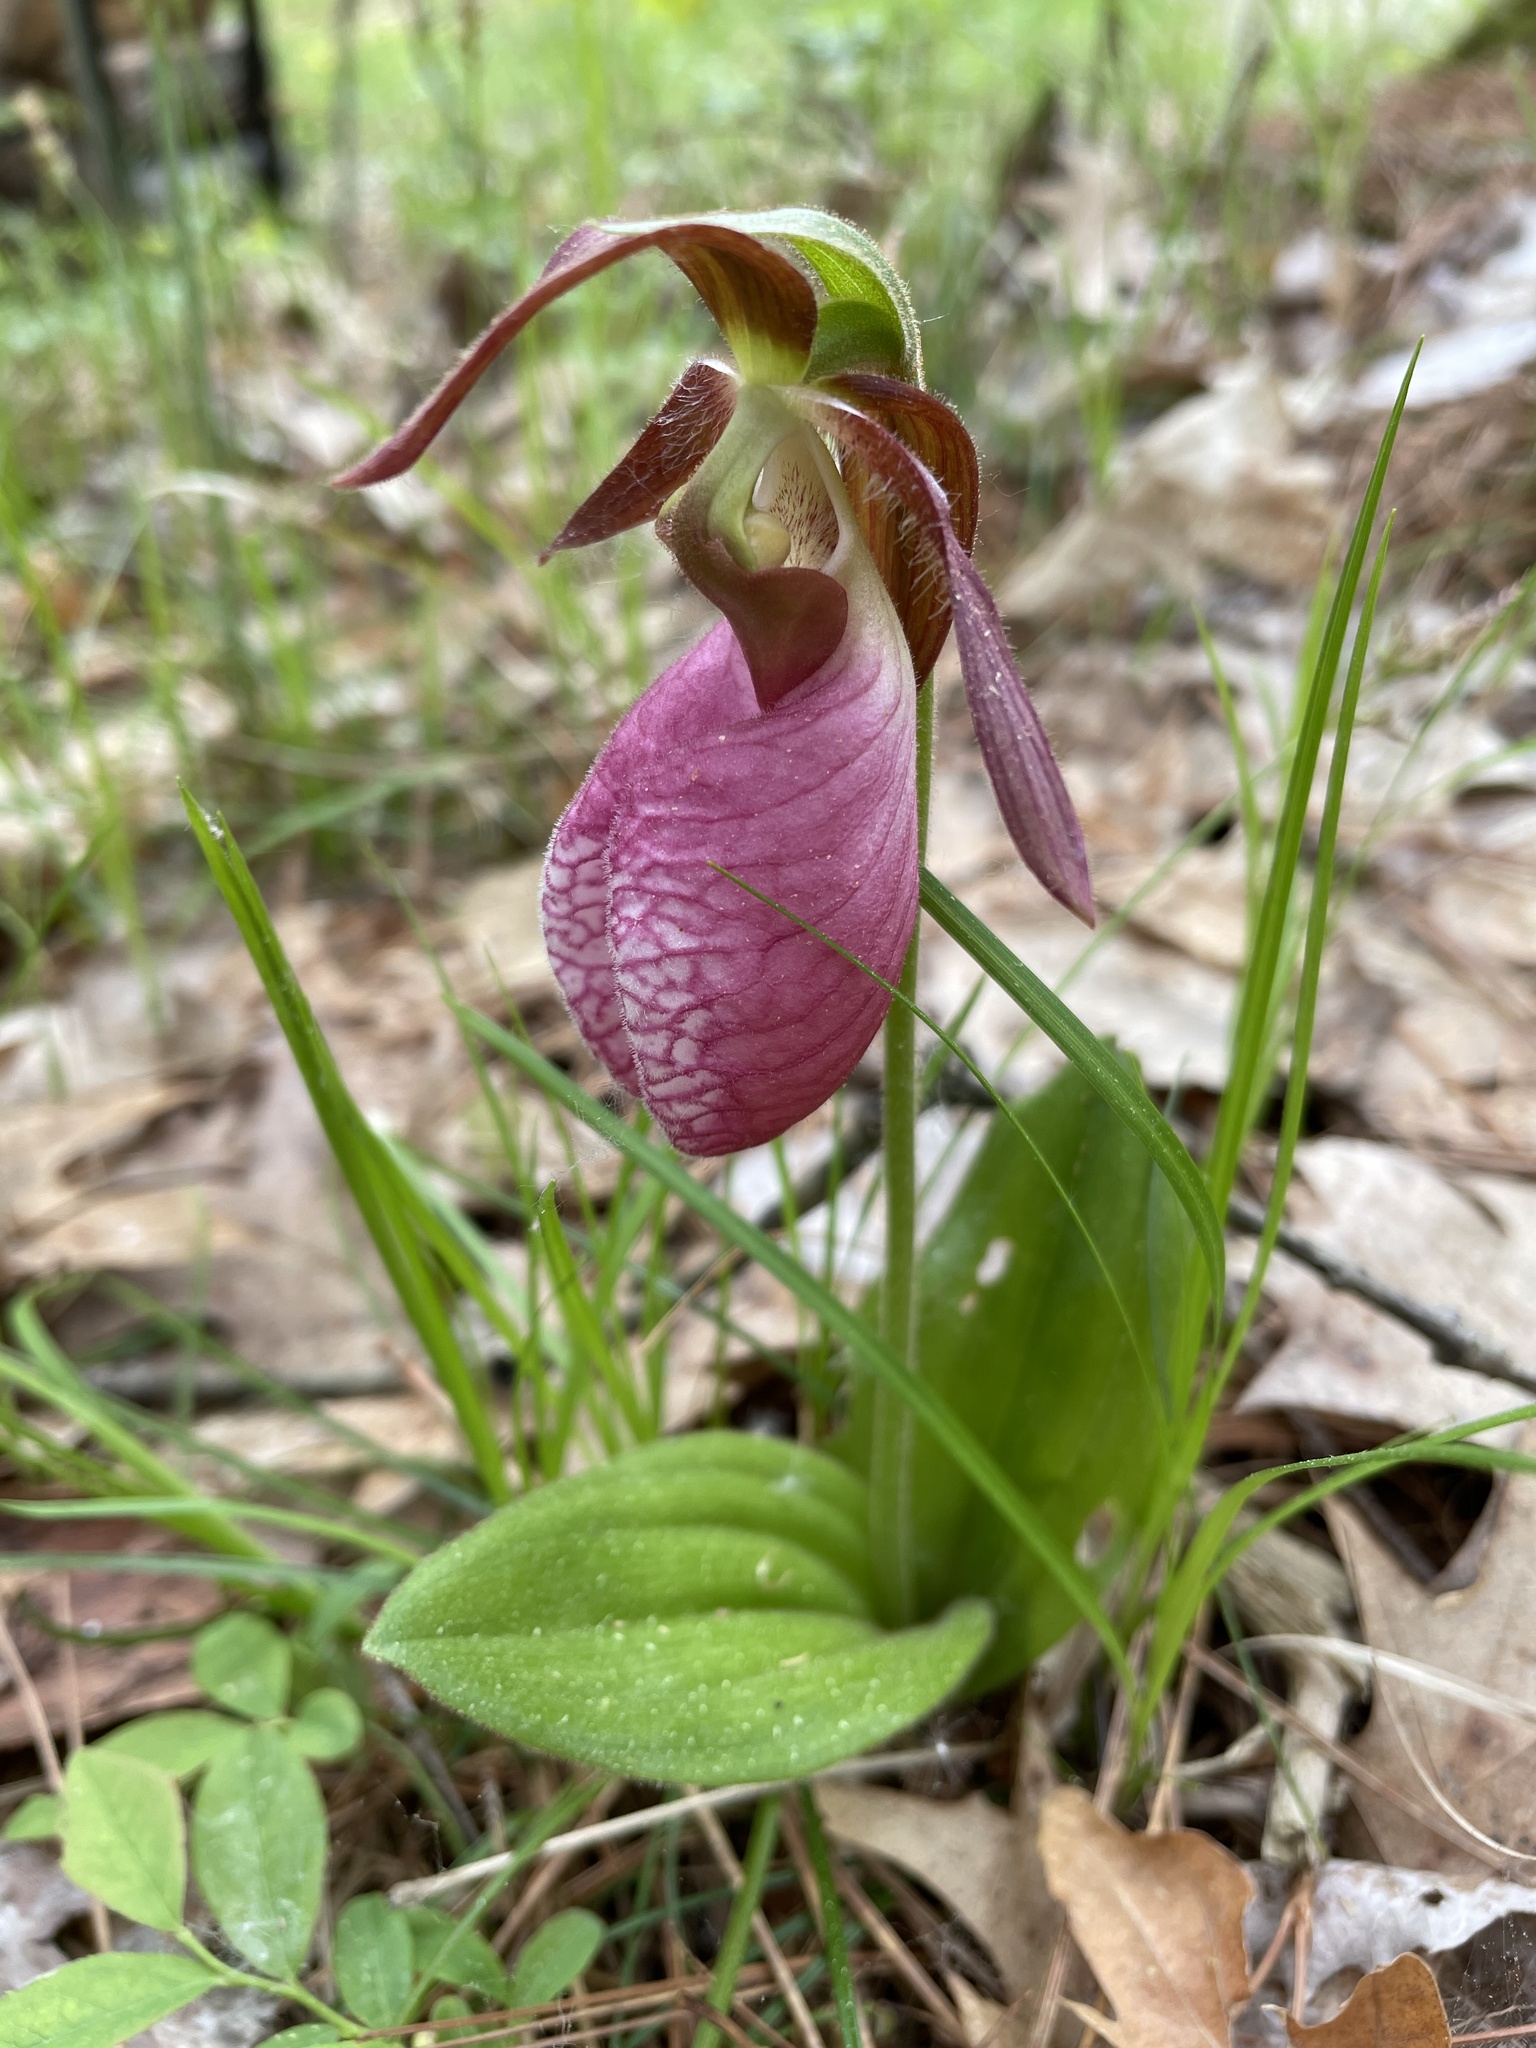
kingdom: Plantae
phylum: Tracheophyta
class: Liliopsida
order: Asparagales
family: Orchidaceae
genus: Cypripedium
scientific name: Cypripedium acaule
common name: Pink lady's-slipper
